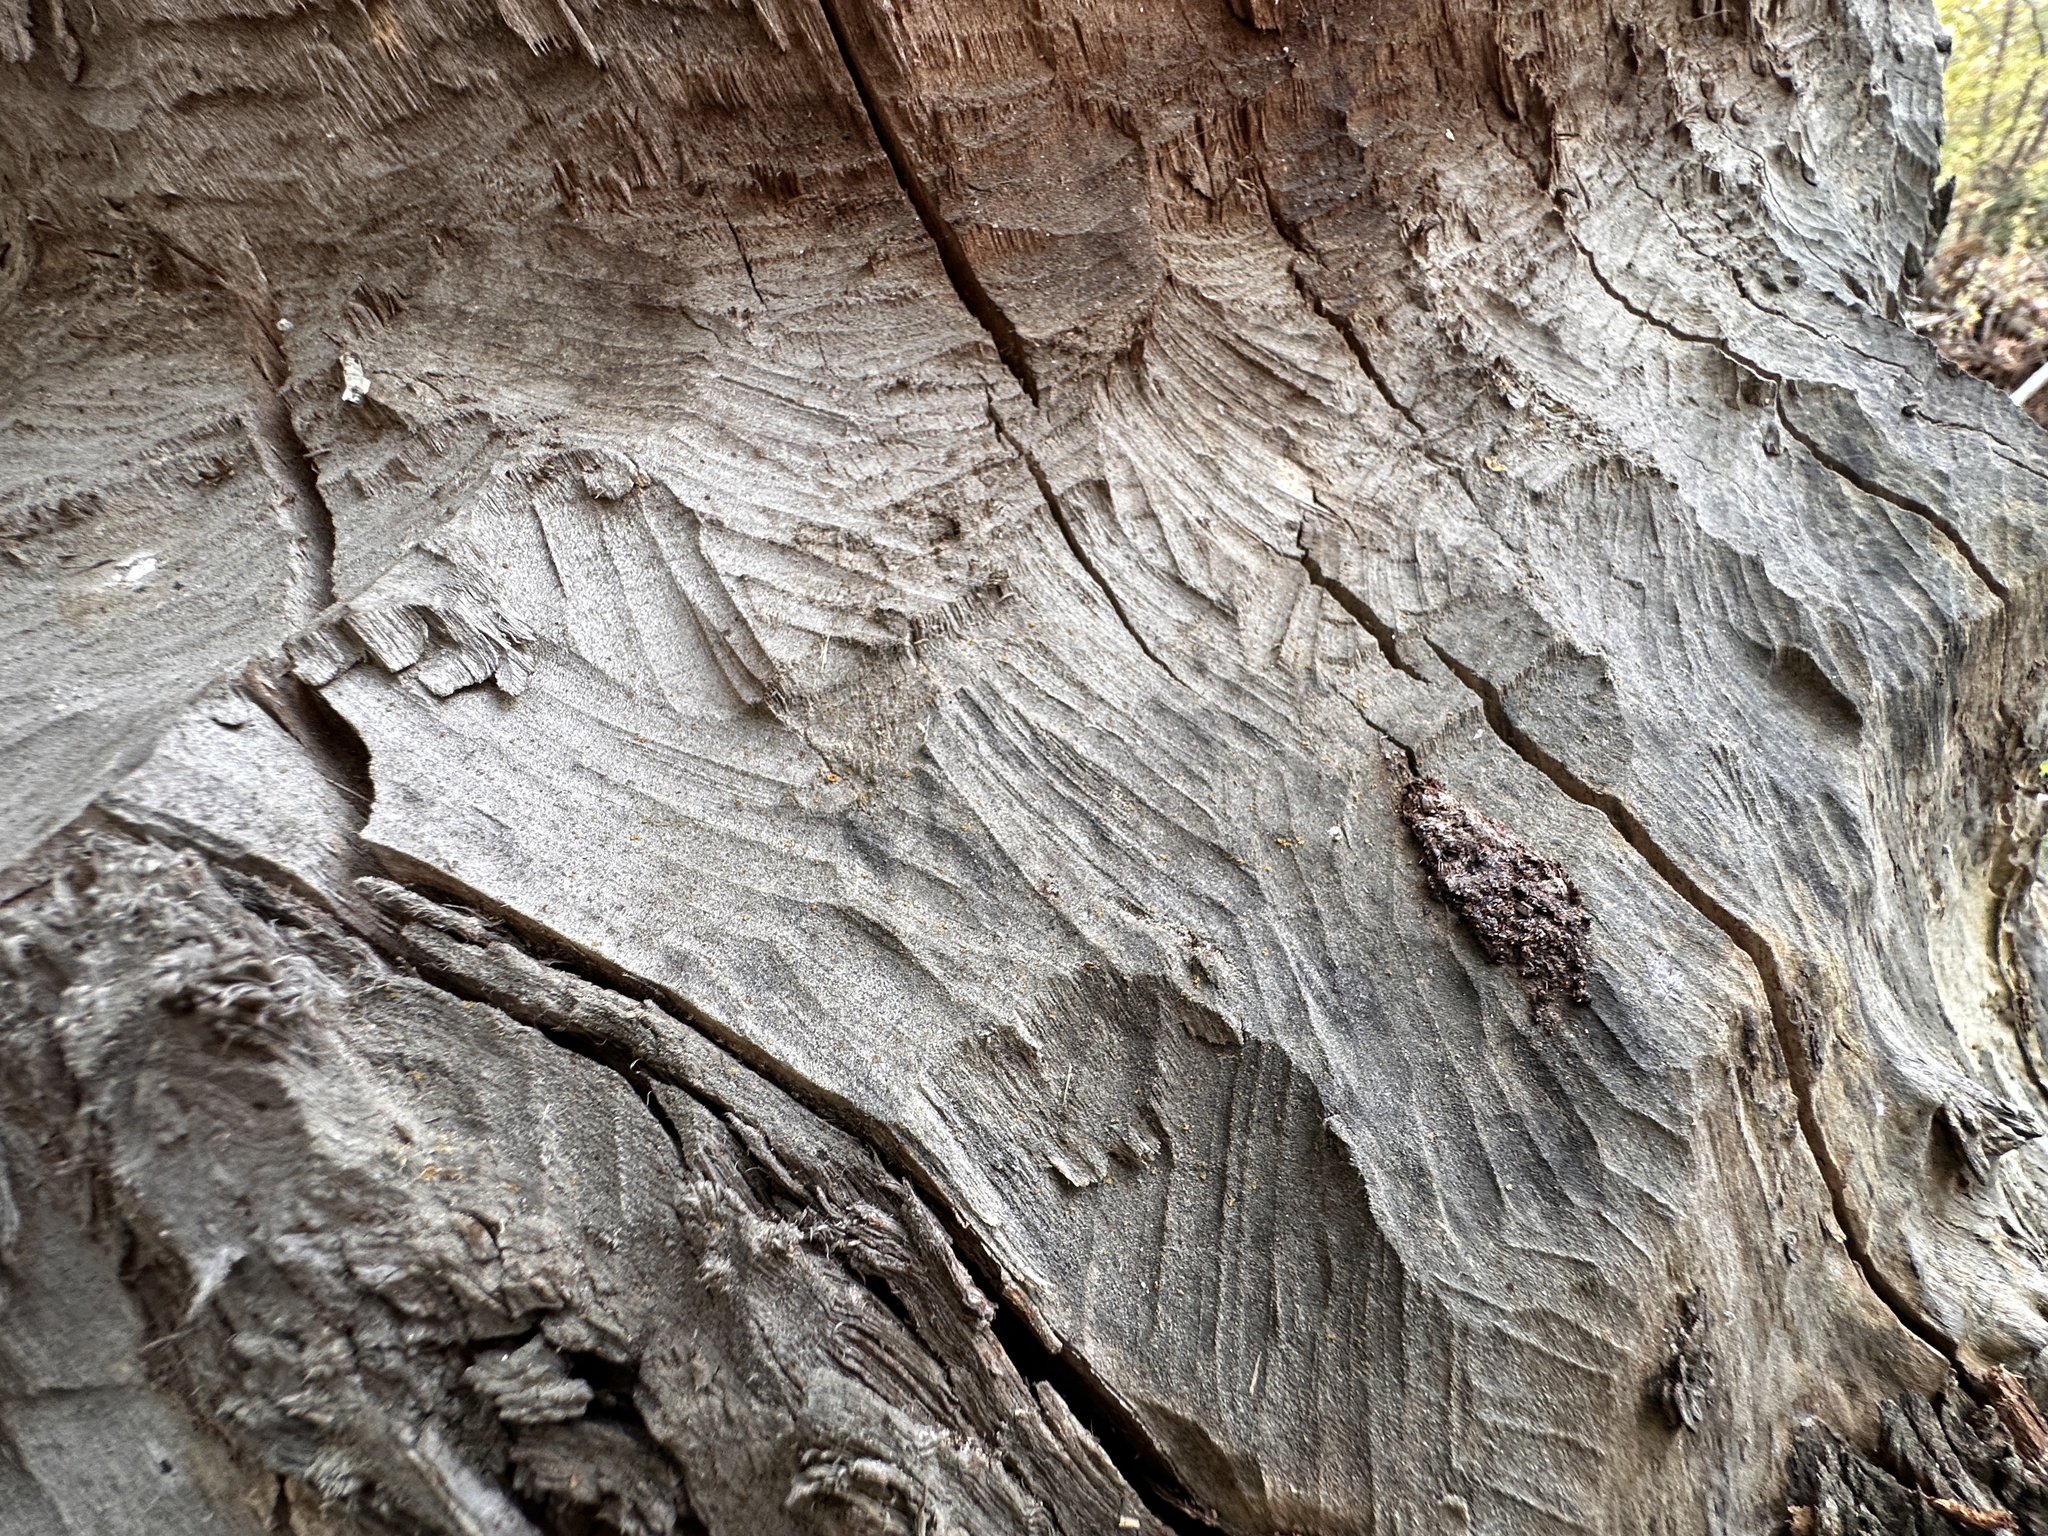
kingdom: Animalia
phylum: Chordata
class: Mammalia
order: Rodentia
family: Castoridae
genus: Castor
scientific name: Castor canadensis
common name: American beaver
